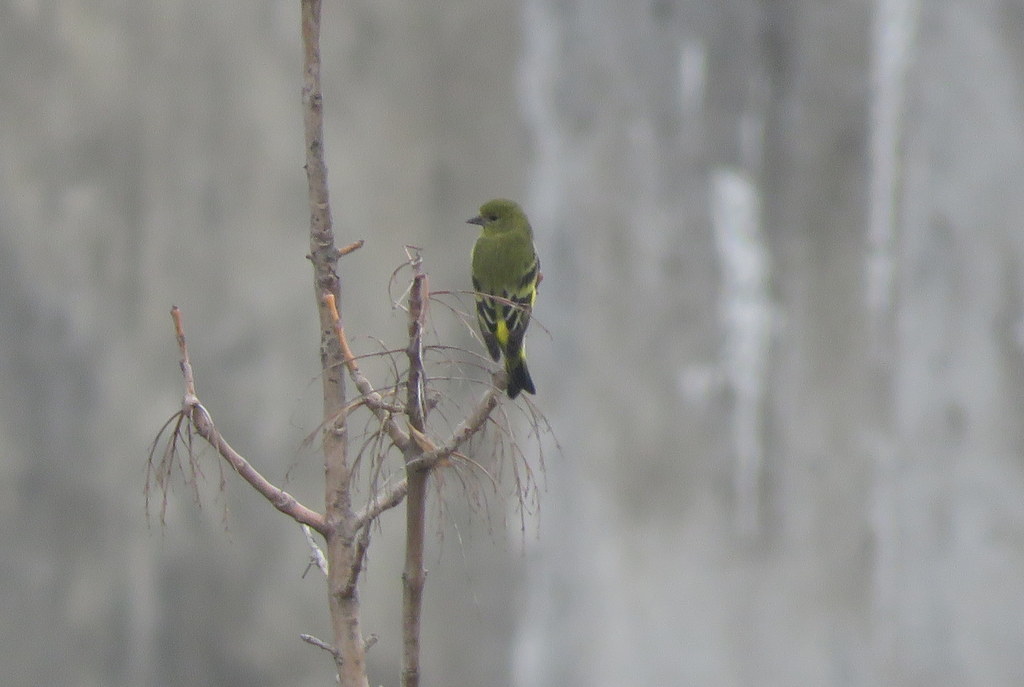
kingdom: Animalia
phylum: Chordata
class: Aves
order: Passeriformes
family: Fringillidae
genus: Spinus
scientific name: Spinus magellanicus
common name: Hooded siskin
